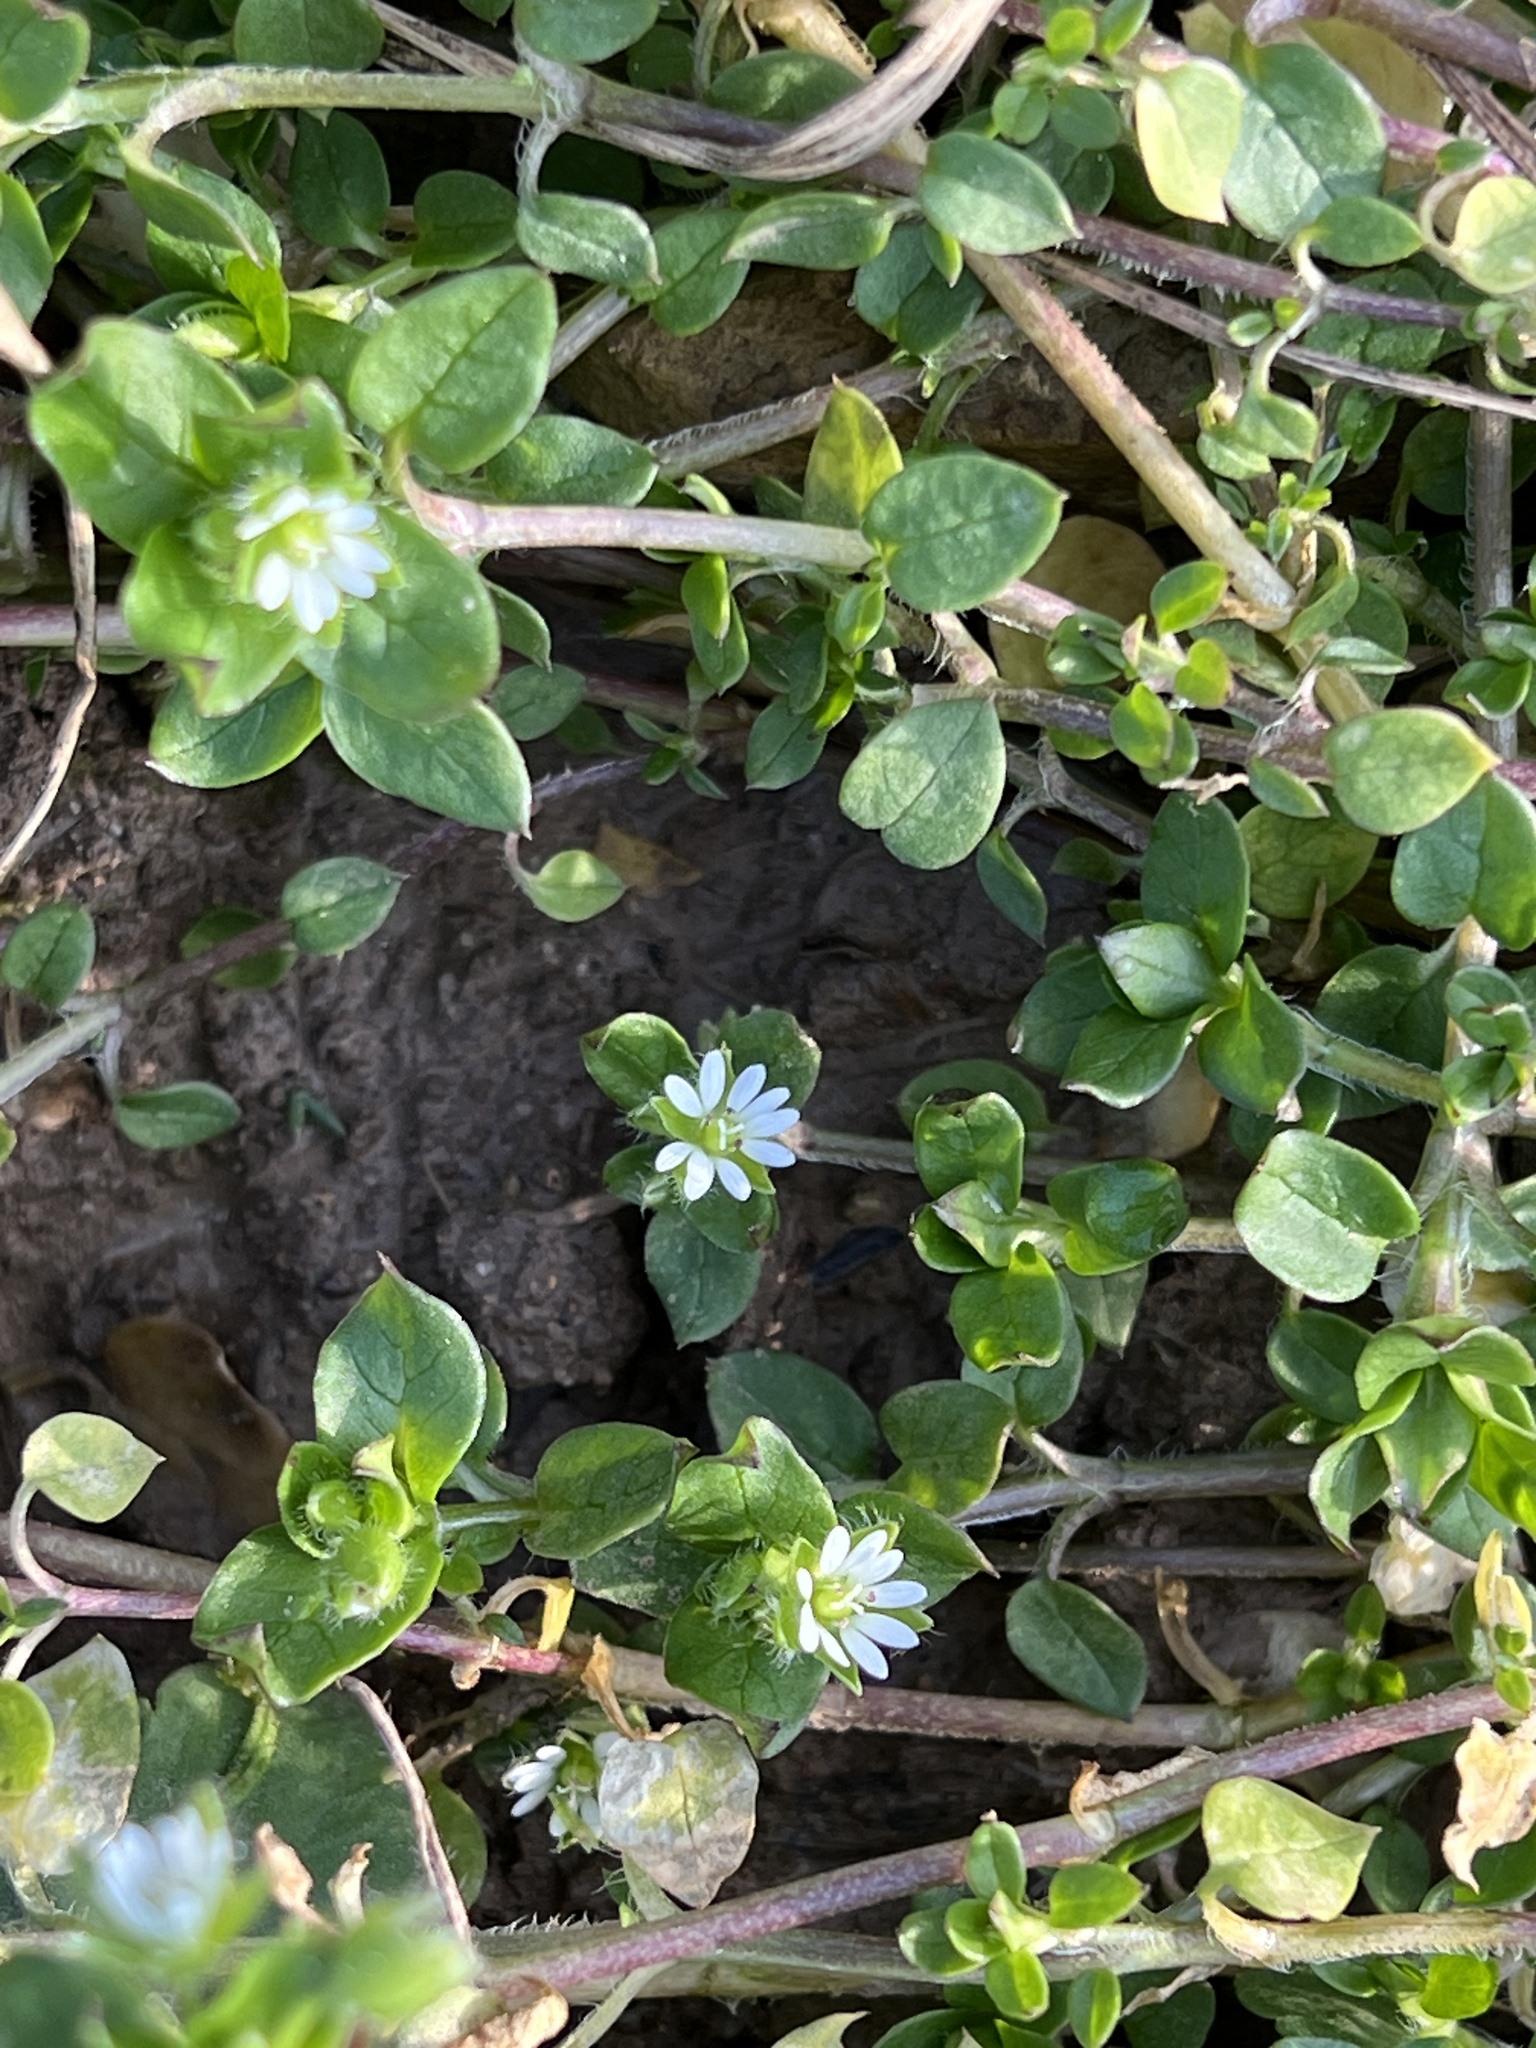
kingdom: Plantae
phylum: Tracheophyta
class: Magnoliopsida
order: Caryophyllales
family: Caryophyllaceae
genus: Stellaria
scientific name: Stellaria media
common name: Common chickweed
